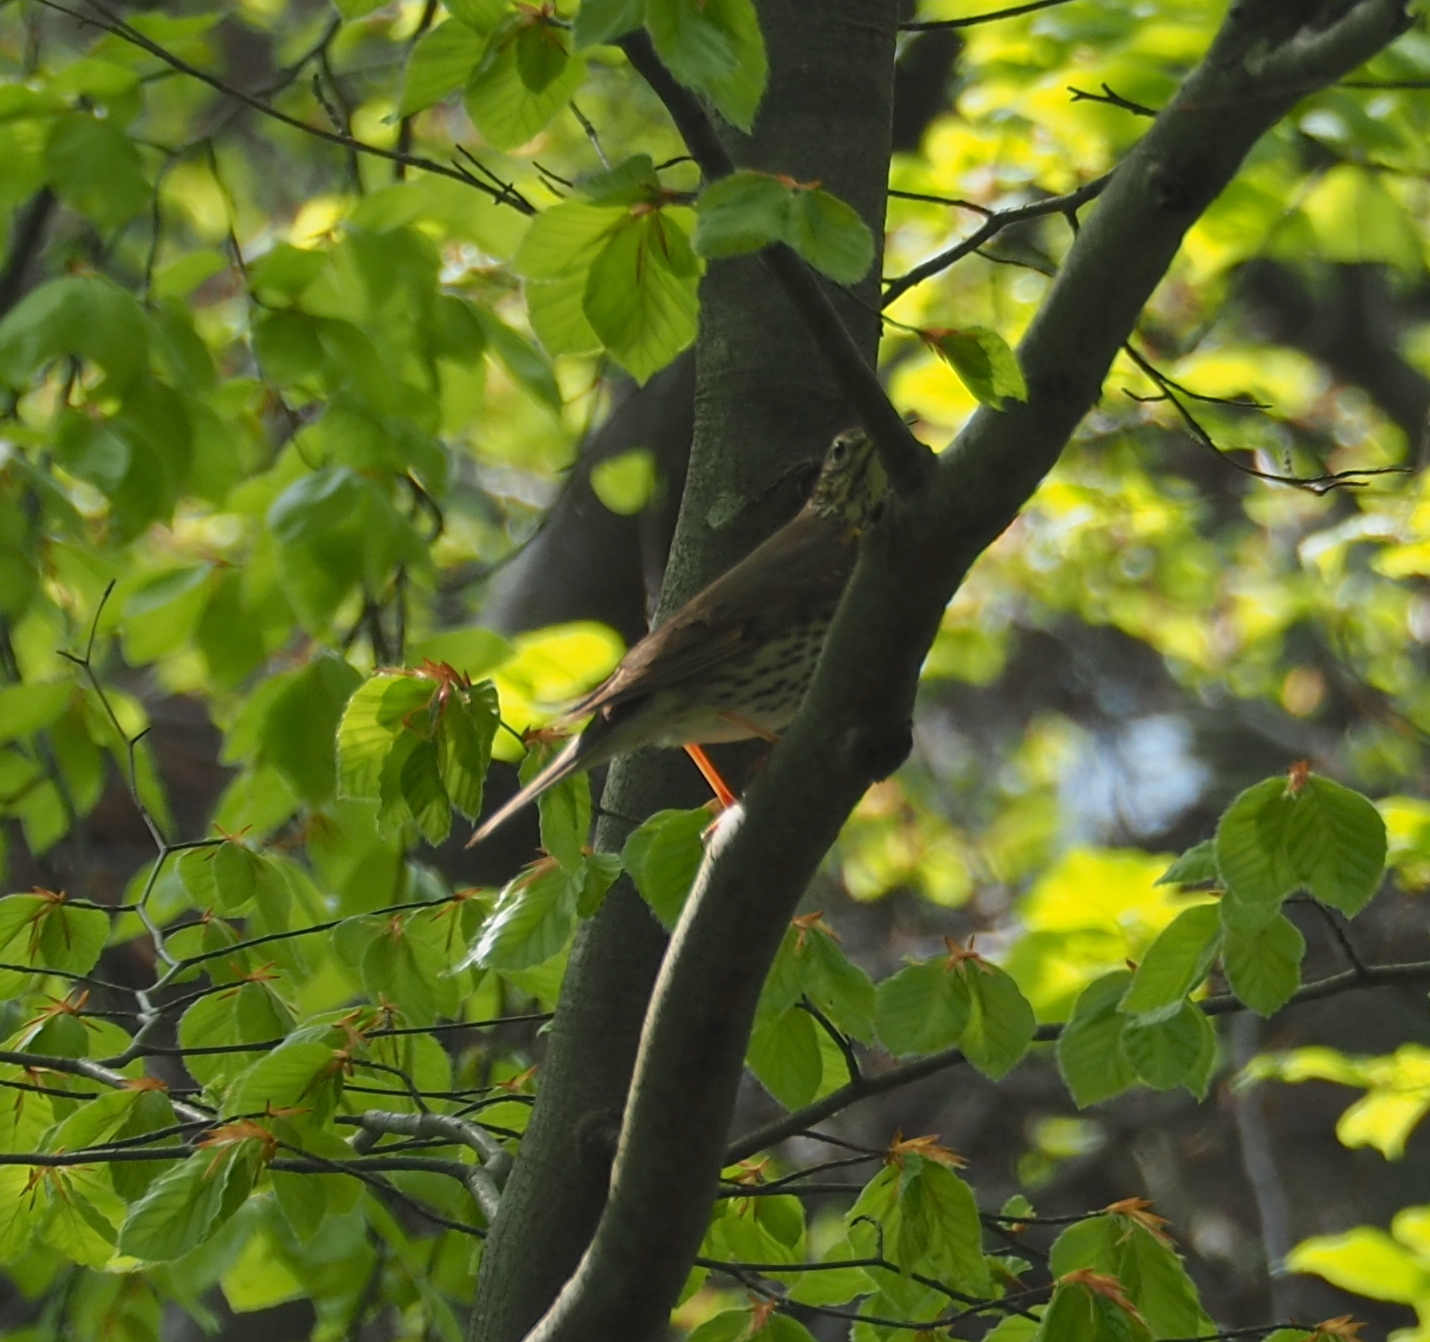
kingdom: Animalia
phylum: Chordata
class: Aves
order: Passeriformes
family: Turdidae
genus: Turdus
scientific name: Turdus philomelos
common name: Song thrush
